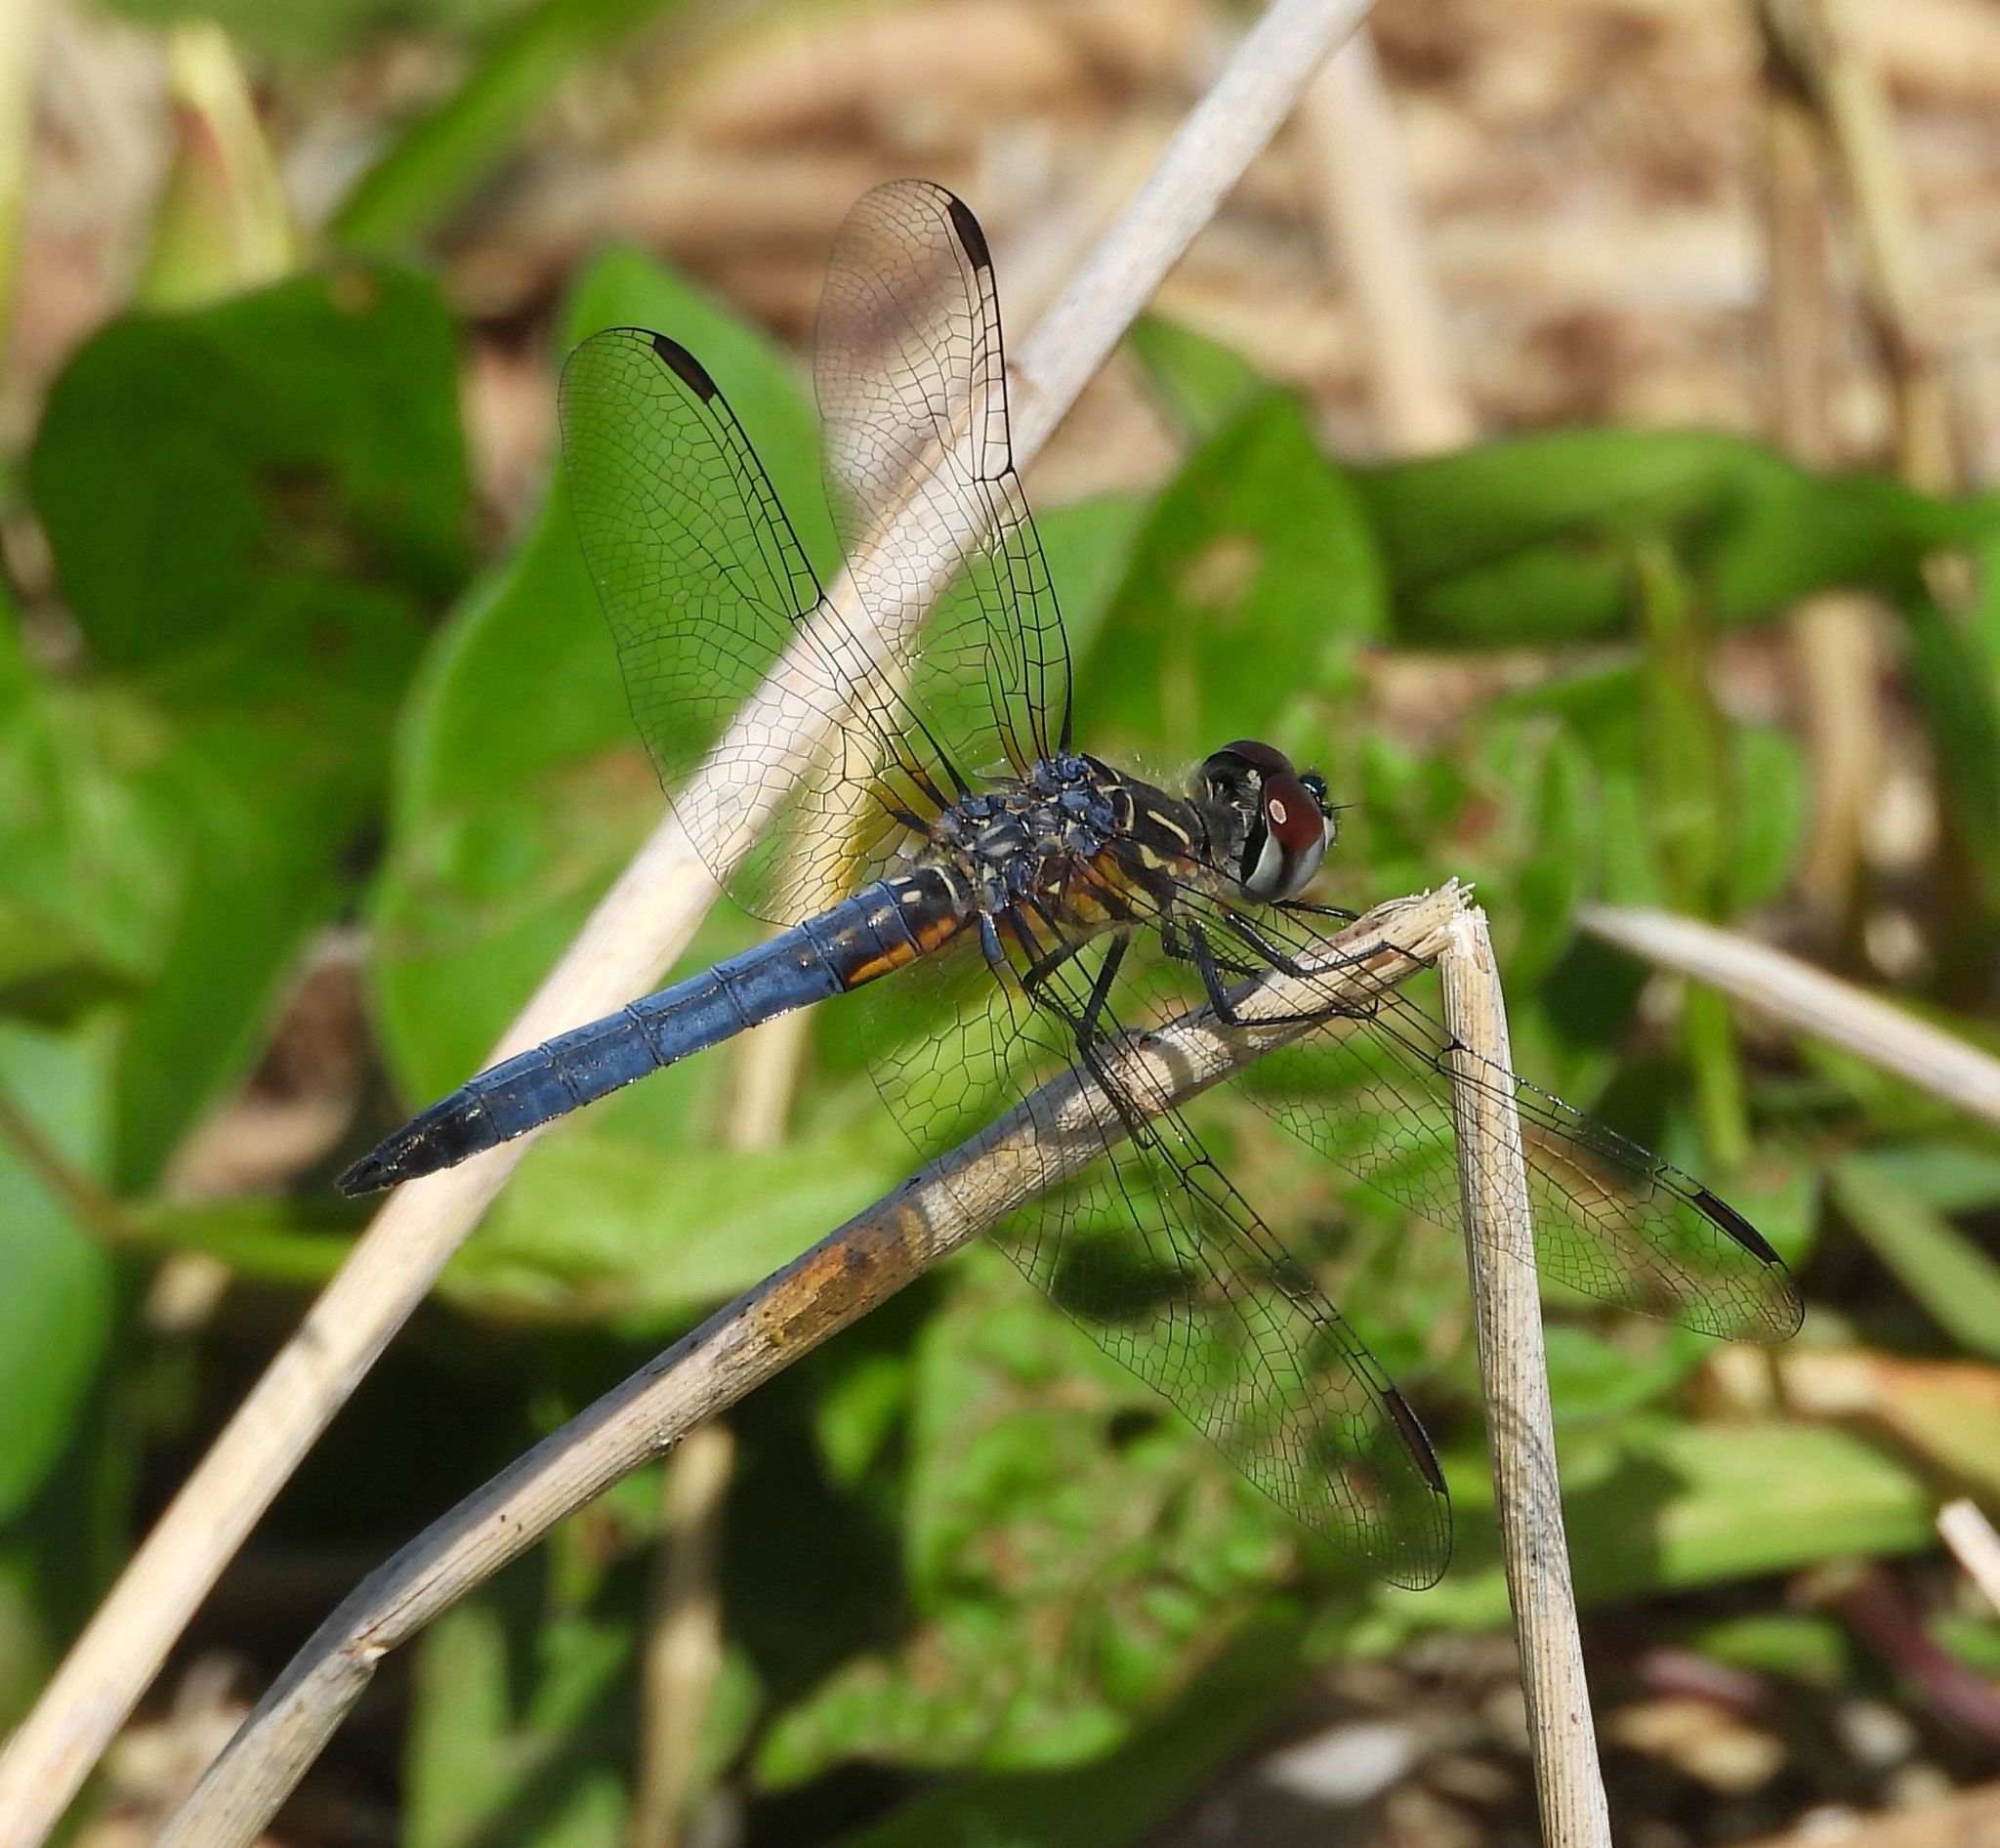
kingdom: Animalia
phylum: Arthropoda
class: Insecta
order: Odonata
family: Libellulidae
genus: Pachydiplax
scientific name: Pachydiplax longipennis
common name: Blue dasher
